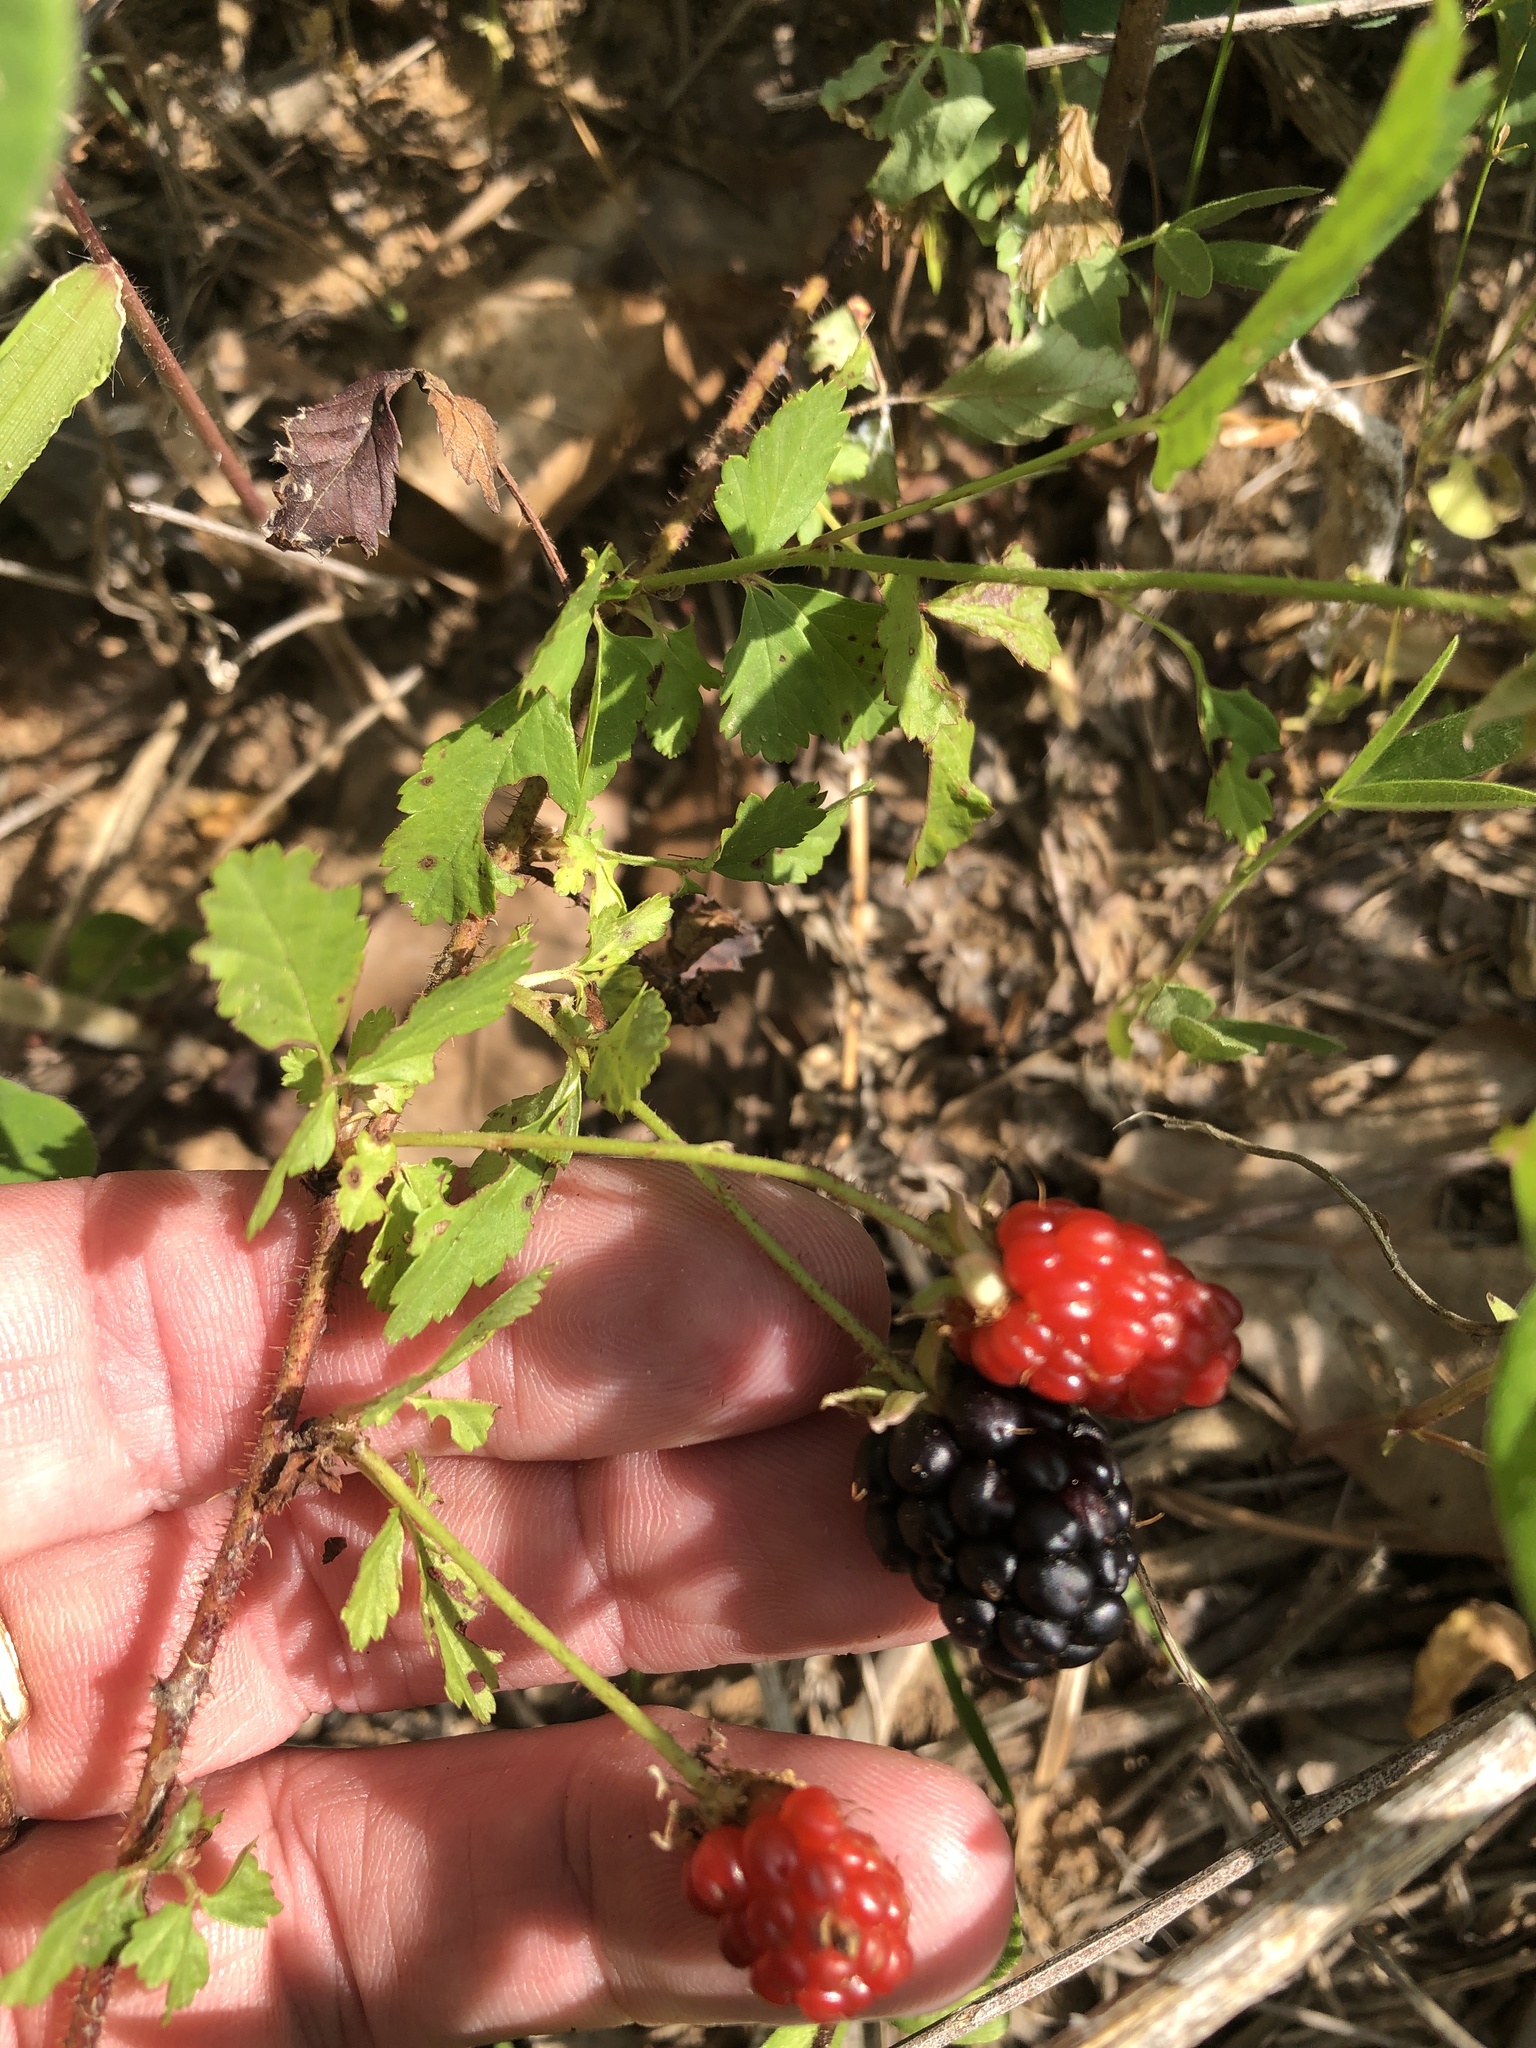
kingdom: Plantae
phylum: Tracheophyta
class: Magnoliopsida
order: Rosales
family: Rosaceae
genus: Rubus
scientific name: Rubus trivialis
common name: Southern dewberry
